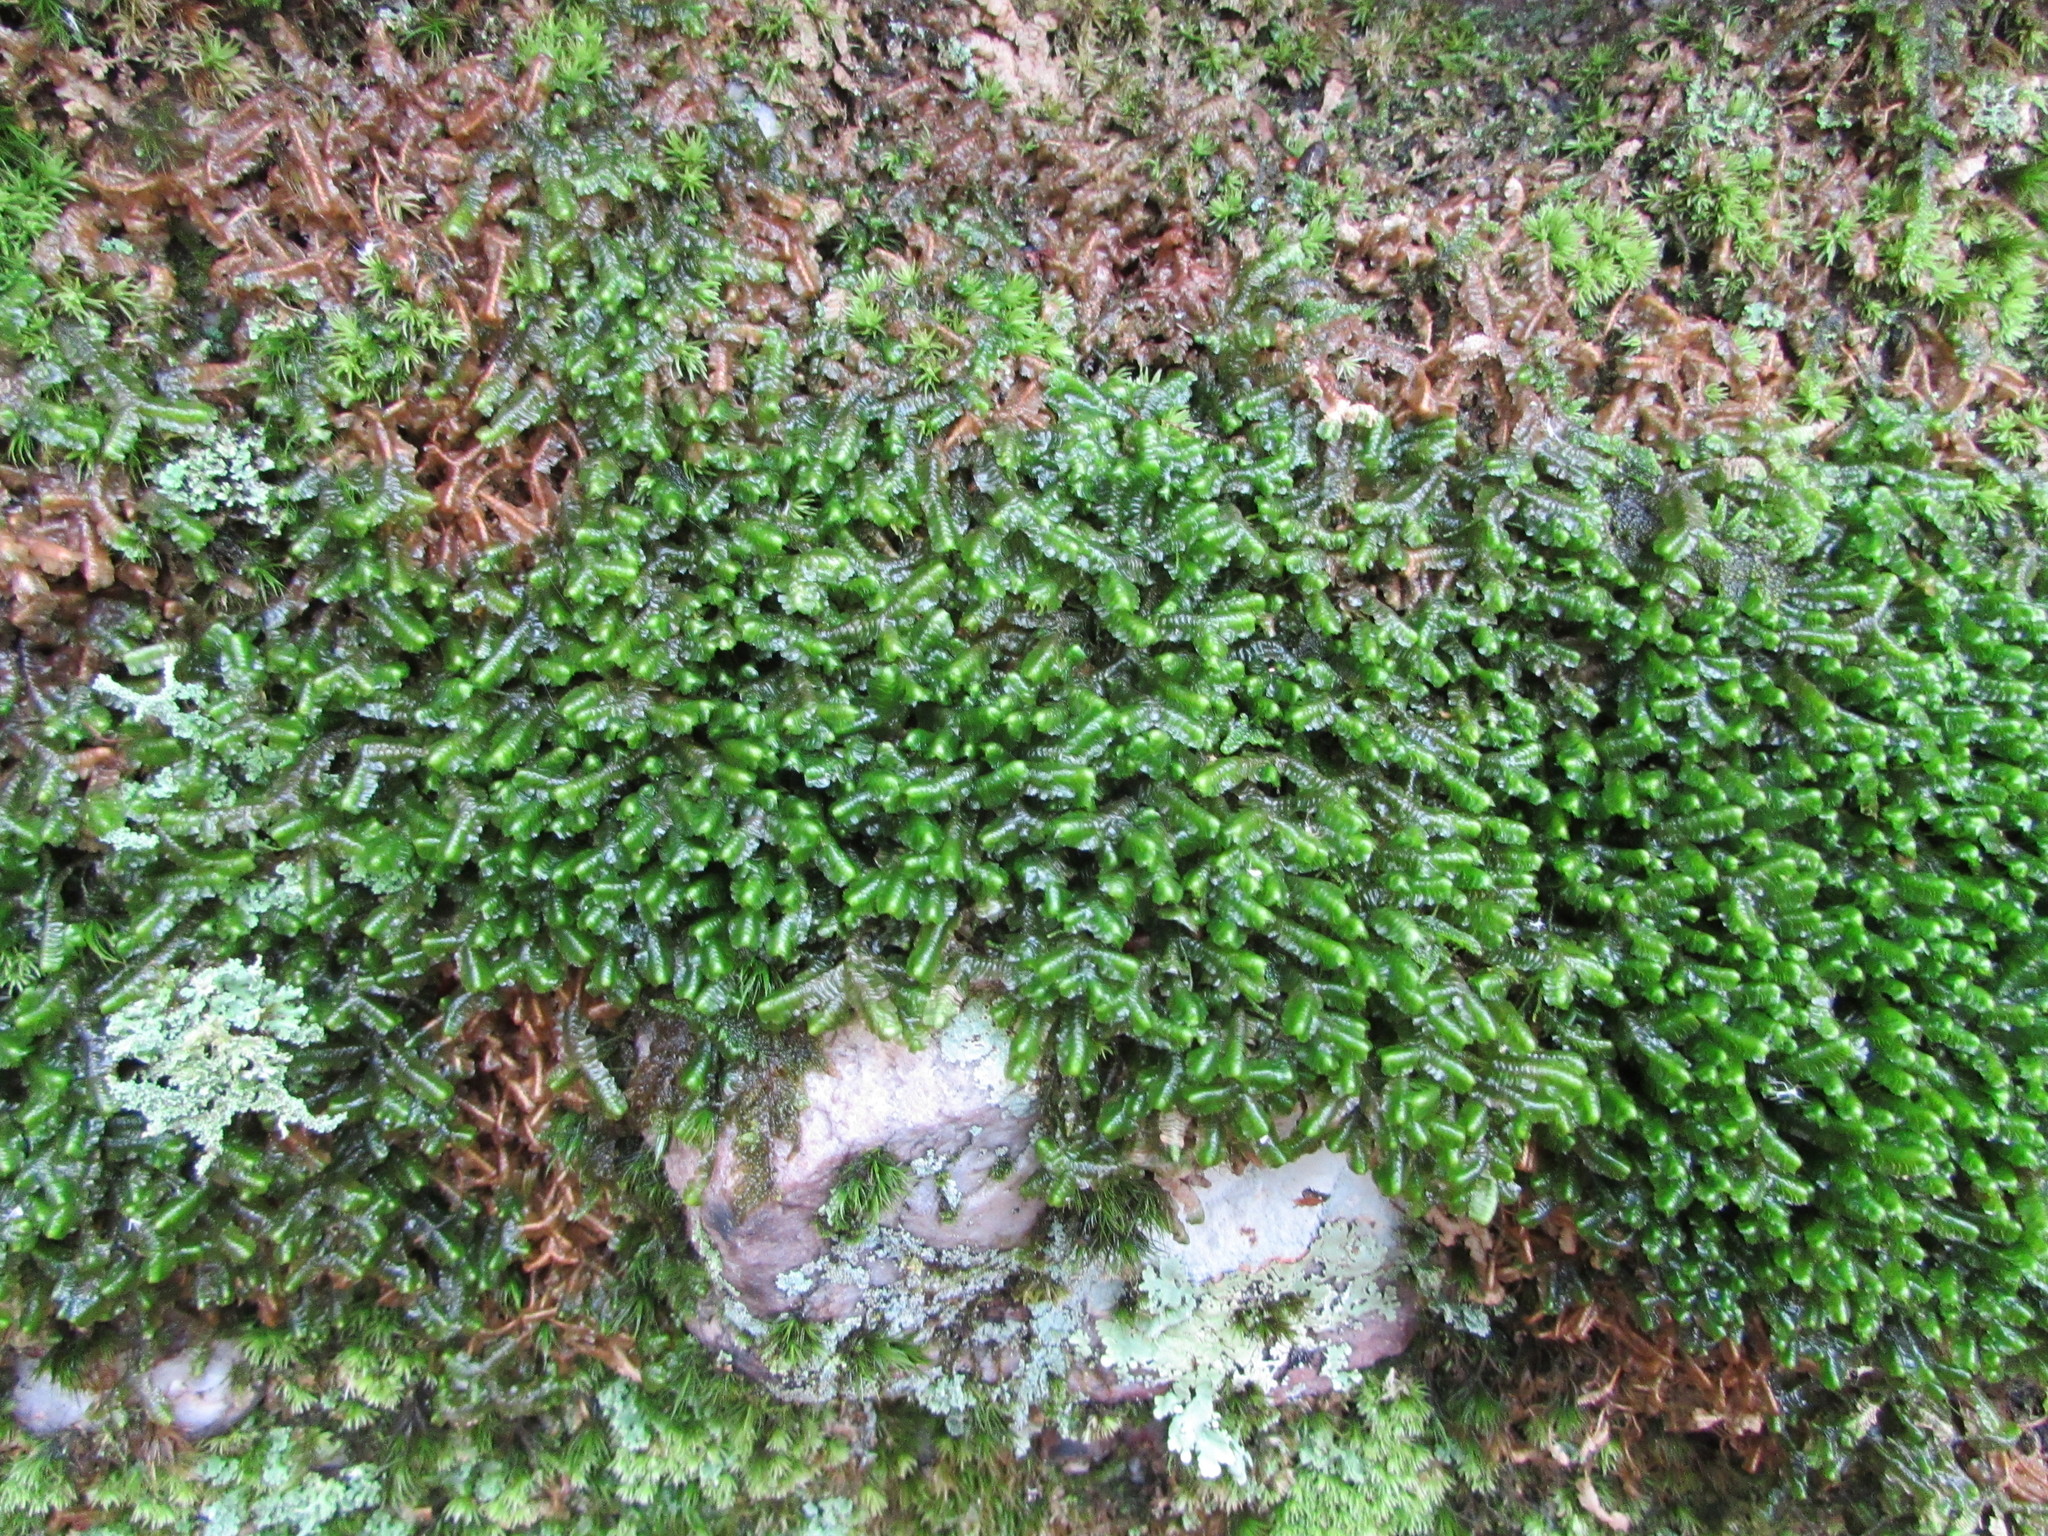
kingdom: Plantae
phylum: Marchantiophyta
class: Jungermanniopsida
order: Jungermanniales
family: Lepidoziaceae
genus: Bazzania
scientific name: Bazzania trilobata
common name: Three-lobed whipwort
